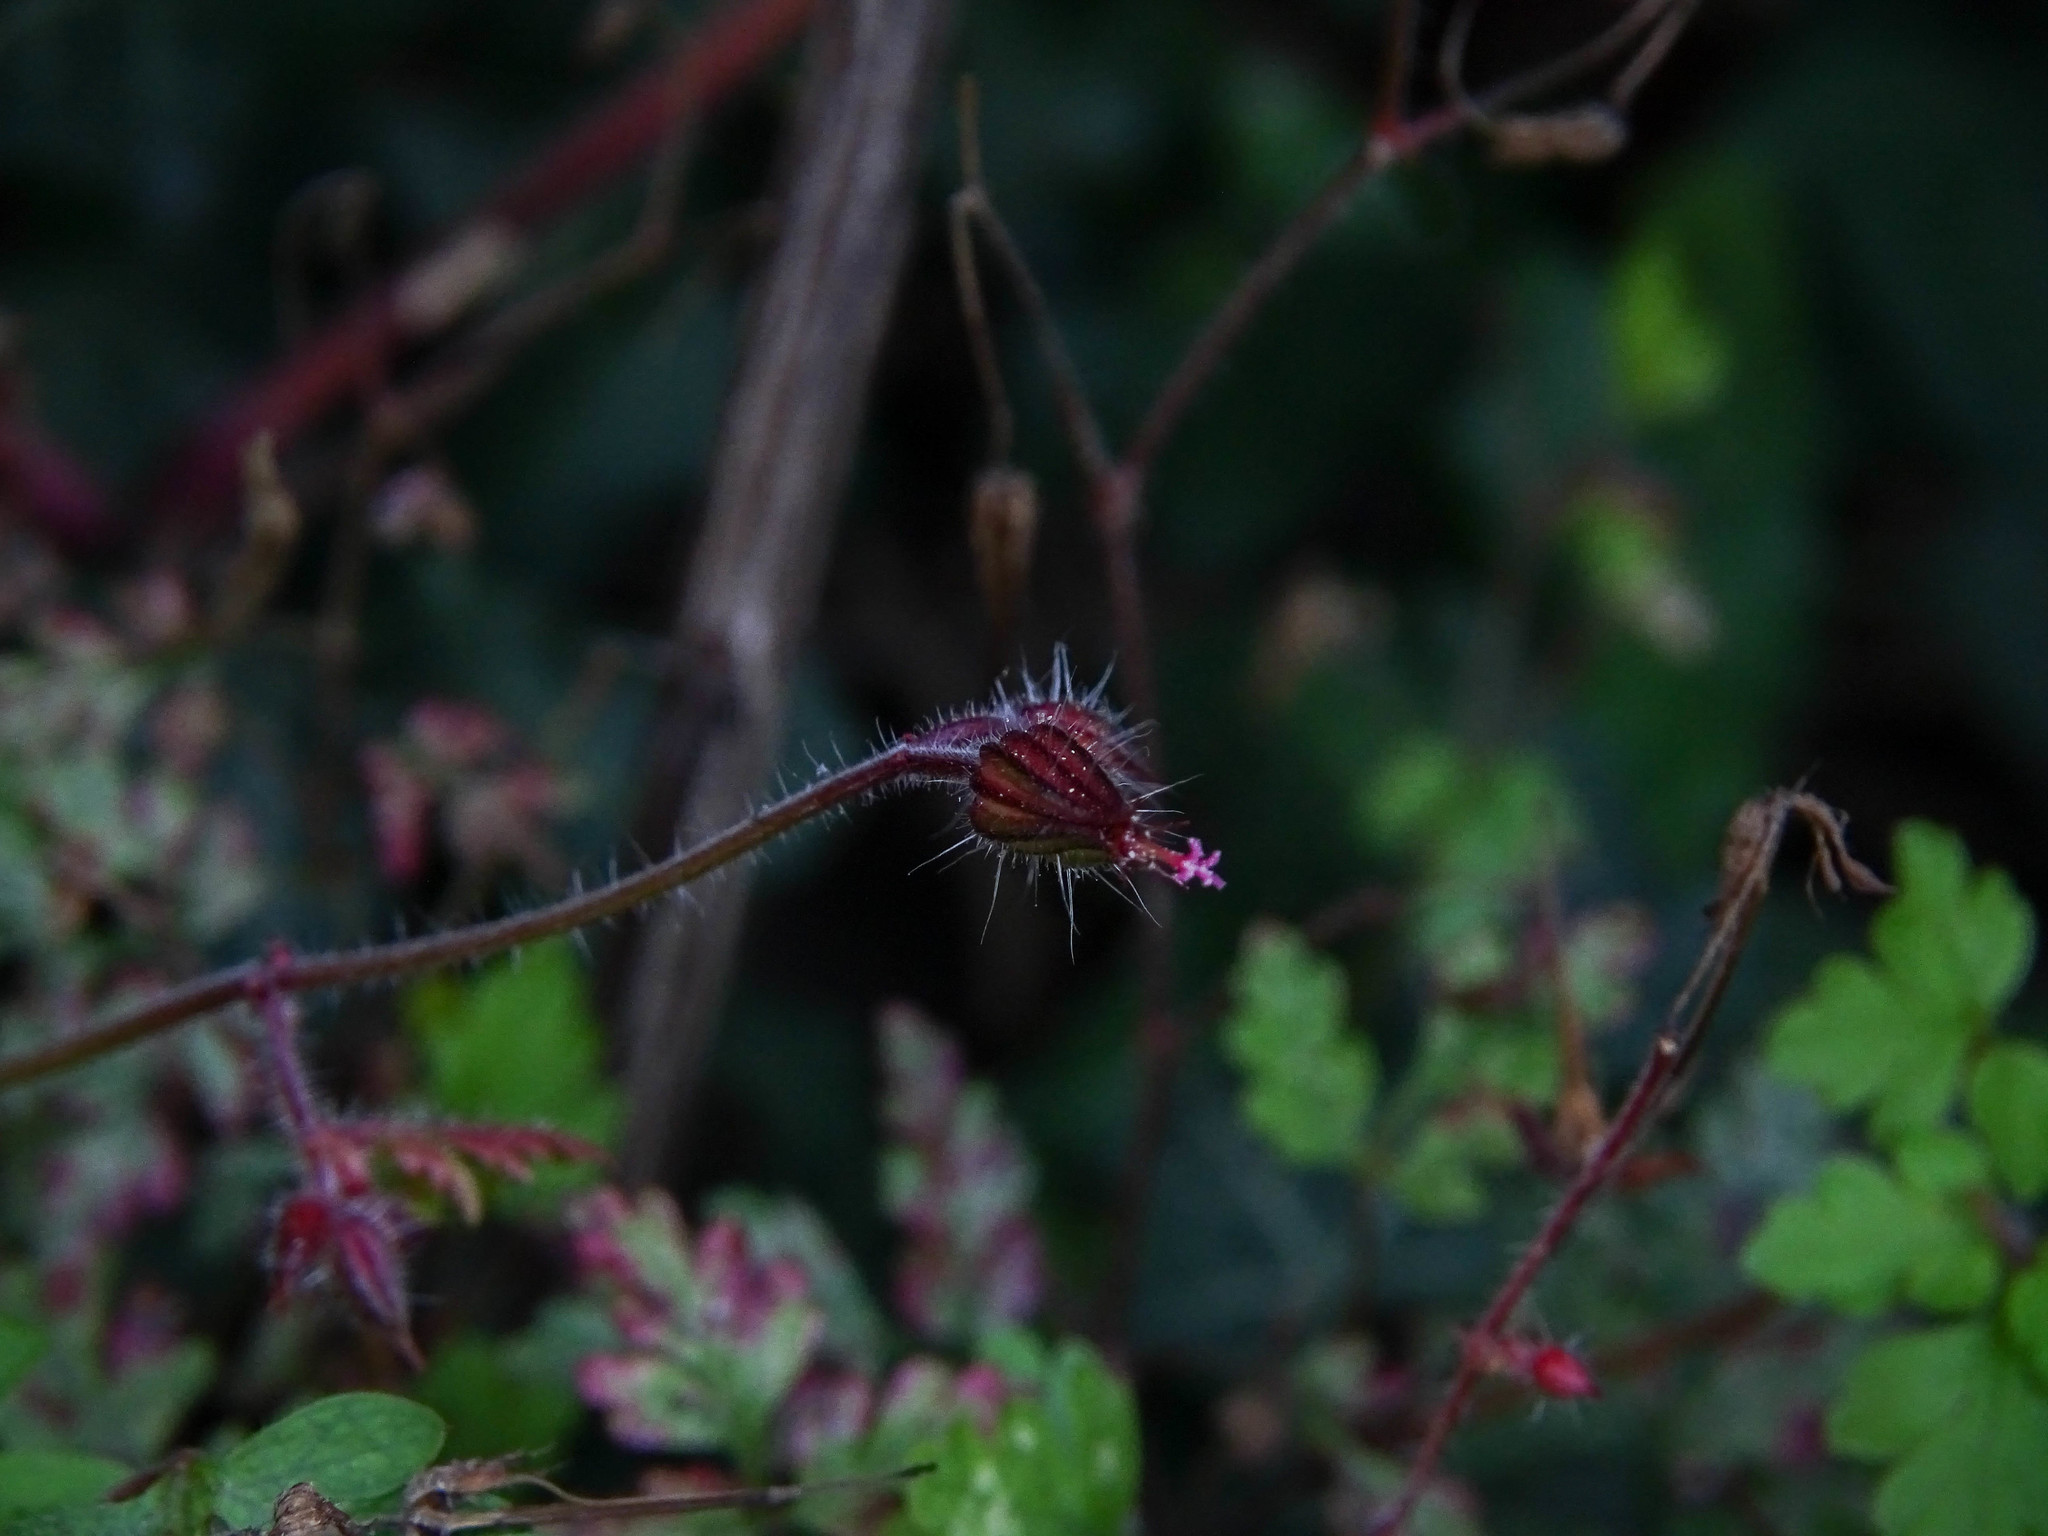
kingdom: Plantae
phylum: Tracheophyta
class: Magnoliopsida
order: Geraniales
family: Geraniaceae
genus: Geranium
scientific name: Geranium robertianum
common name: Herb-robert
